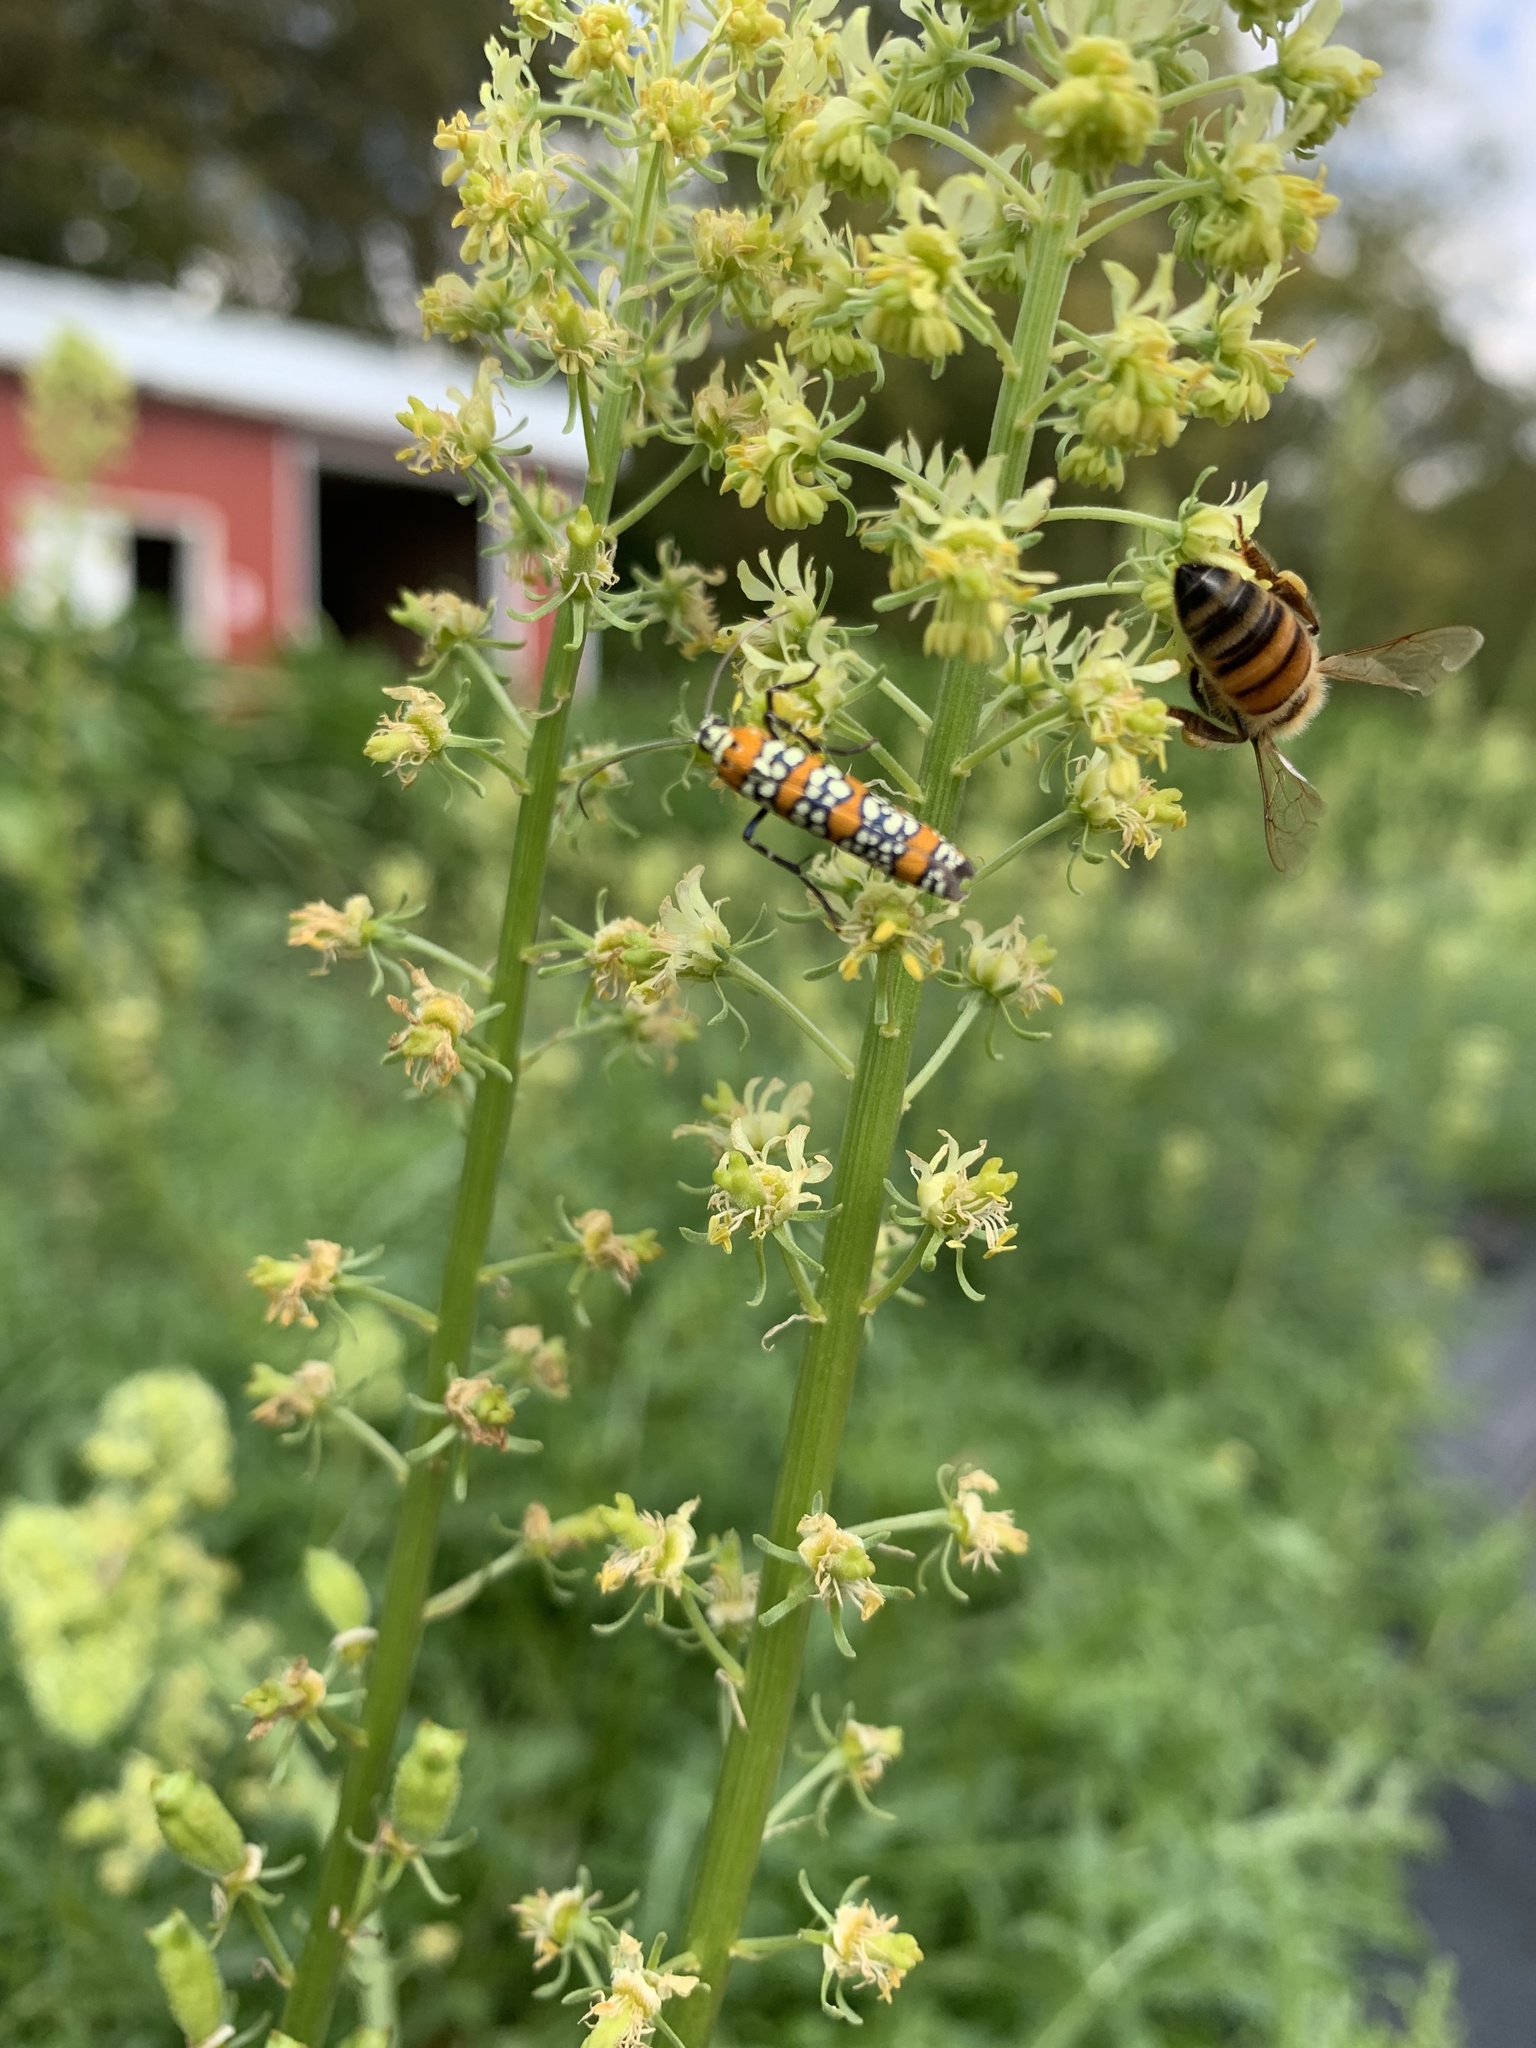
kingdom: Animalia
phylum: Arthropoda
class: Insecta
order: Lepidoptera
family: Attevidae
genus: Atteva
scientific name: Atteva punctella
